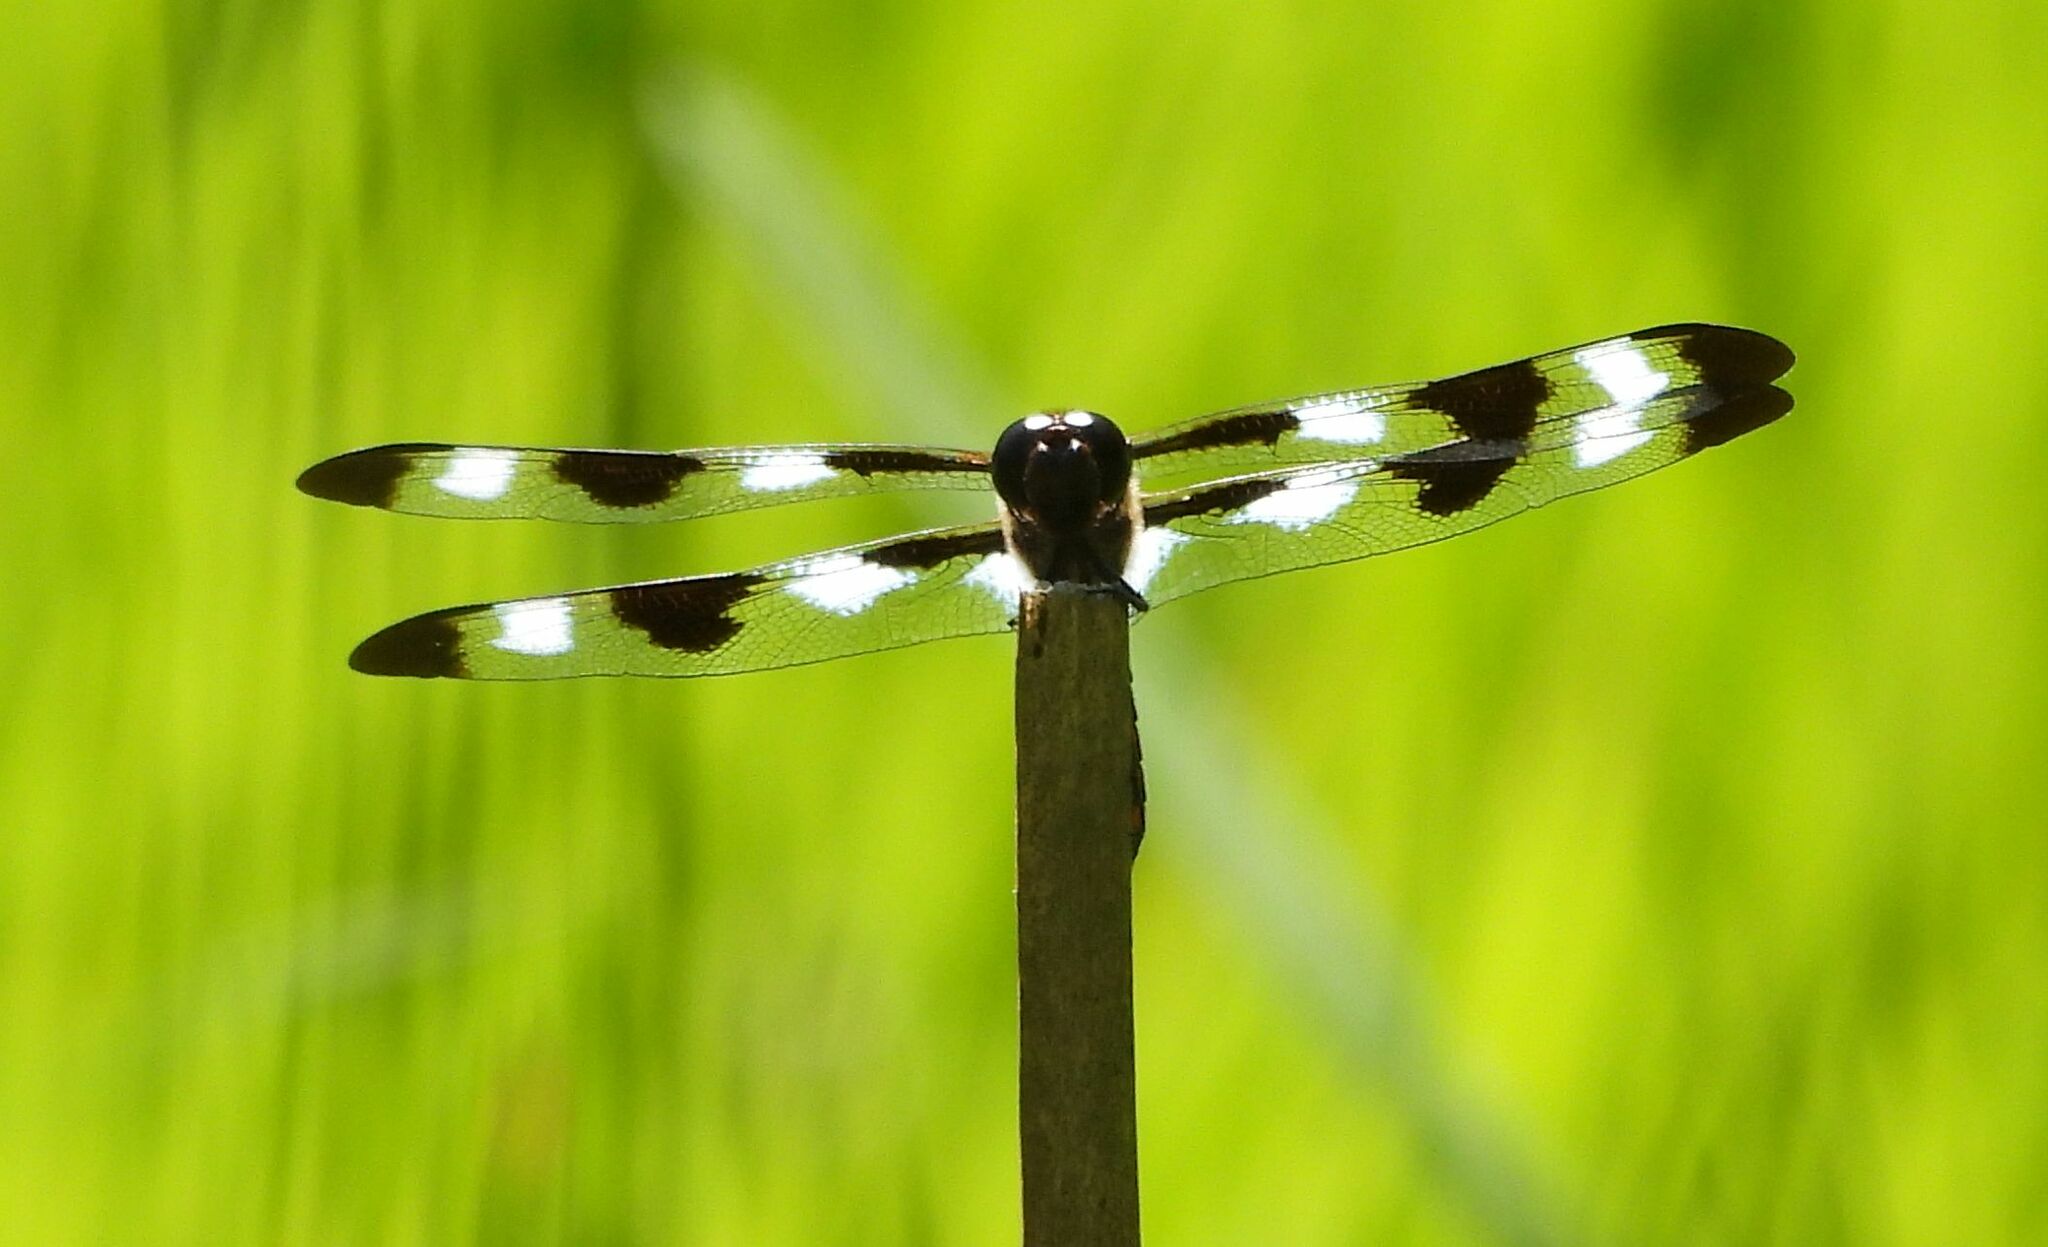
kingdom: Animalia
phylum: Arthropoda
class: Insecta
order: Odonata
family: Libellulidae
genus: Libellula
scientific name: Libellula pulchella
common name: Twelve-spotted skimmer
